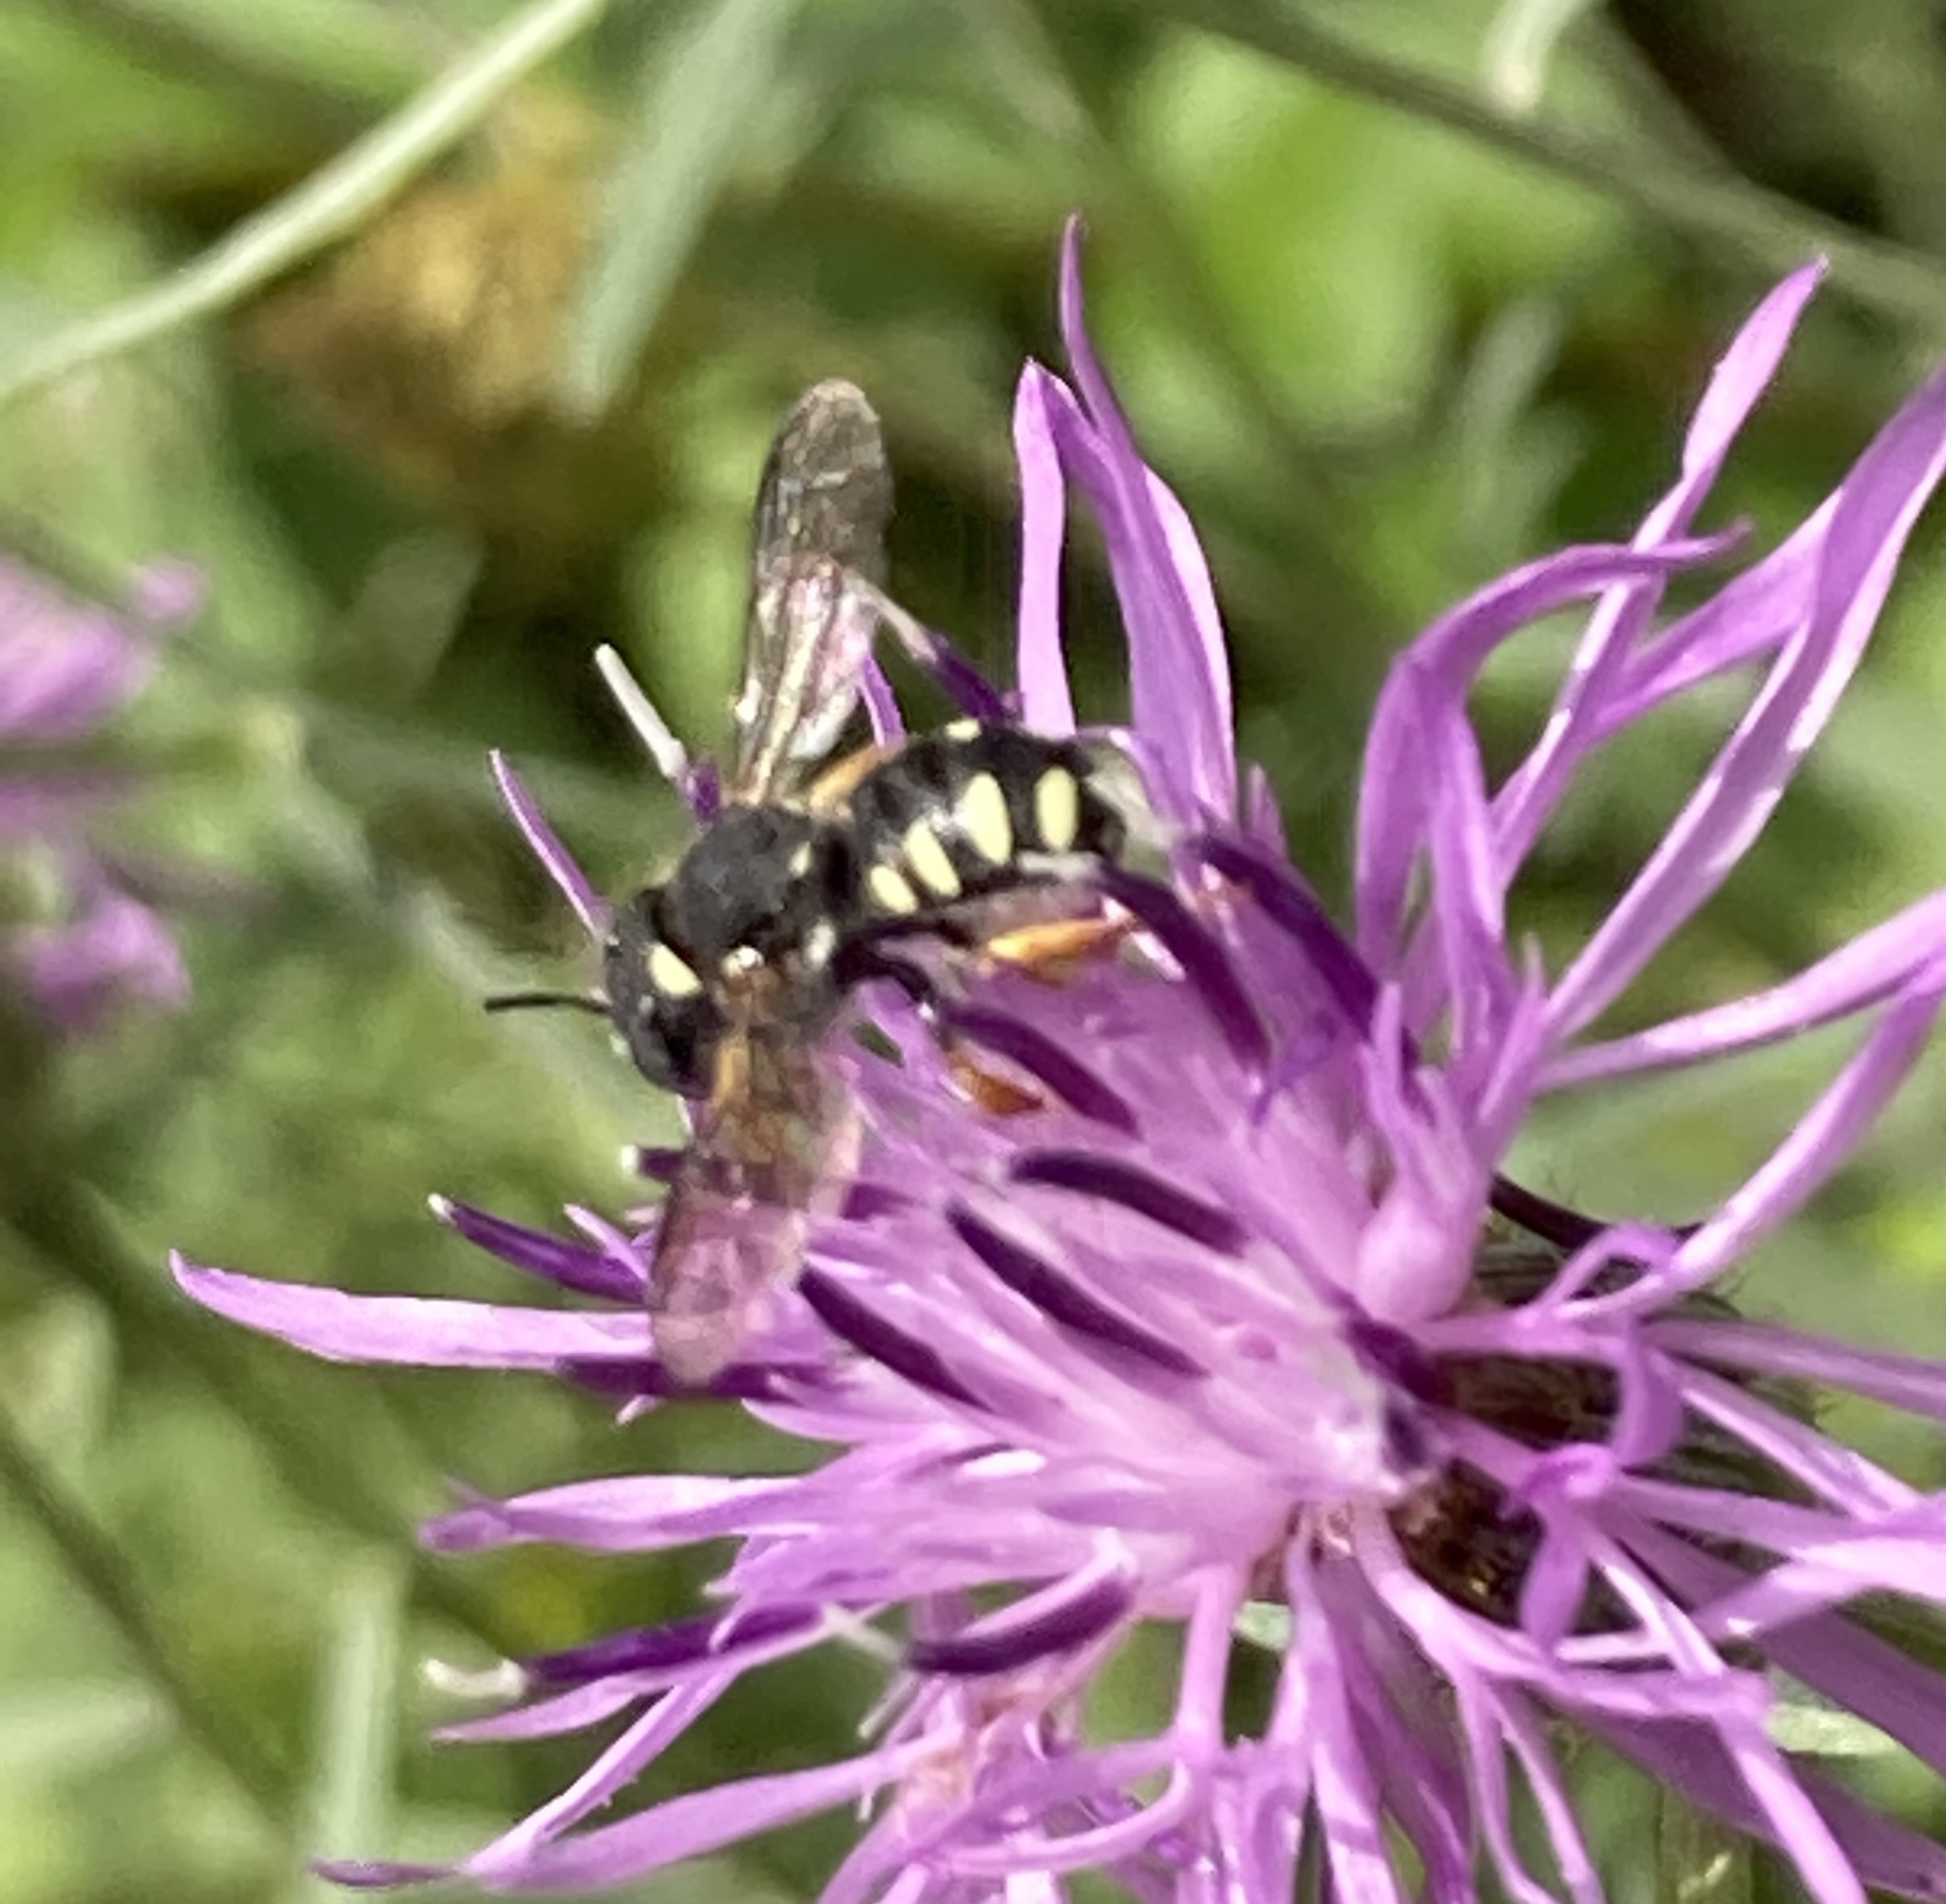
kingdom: Animalia
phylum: Arthropoda
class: Insecta
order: Hymenoptera
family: Megachilidae
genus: Pseudoanthidium
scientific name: Pseudoanthidium nanum
